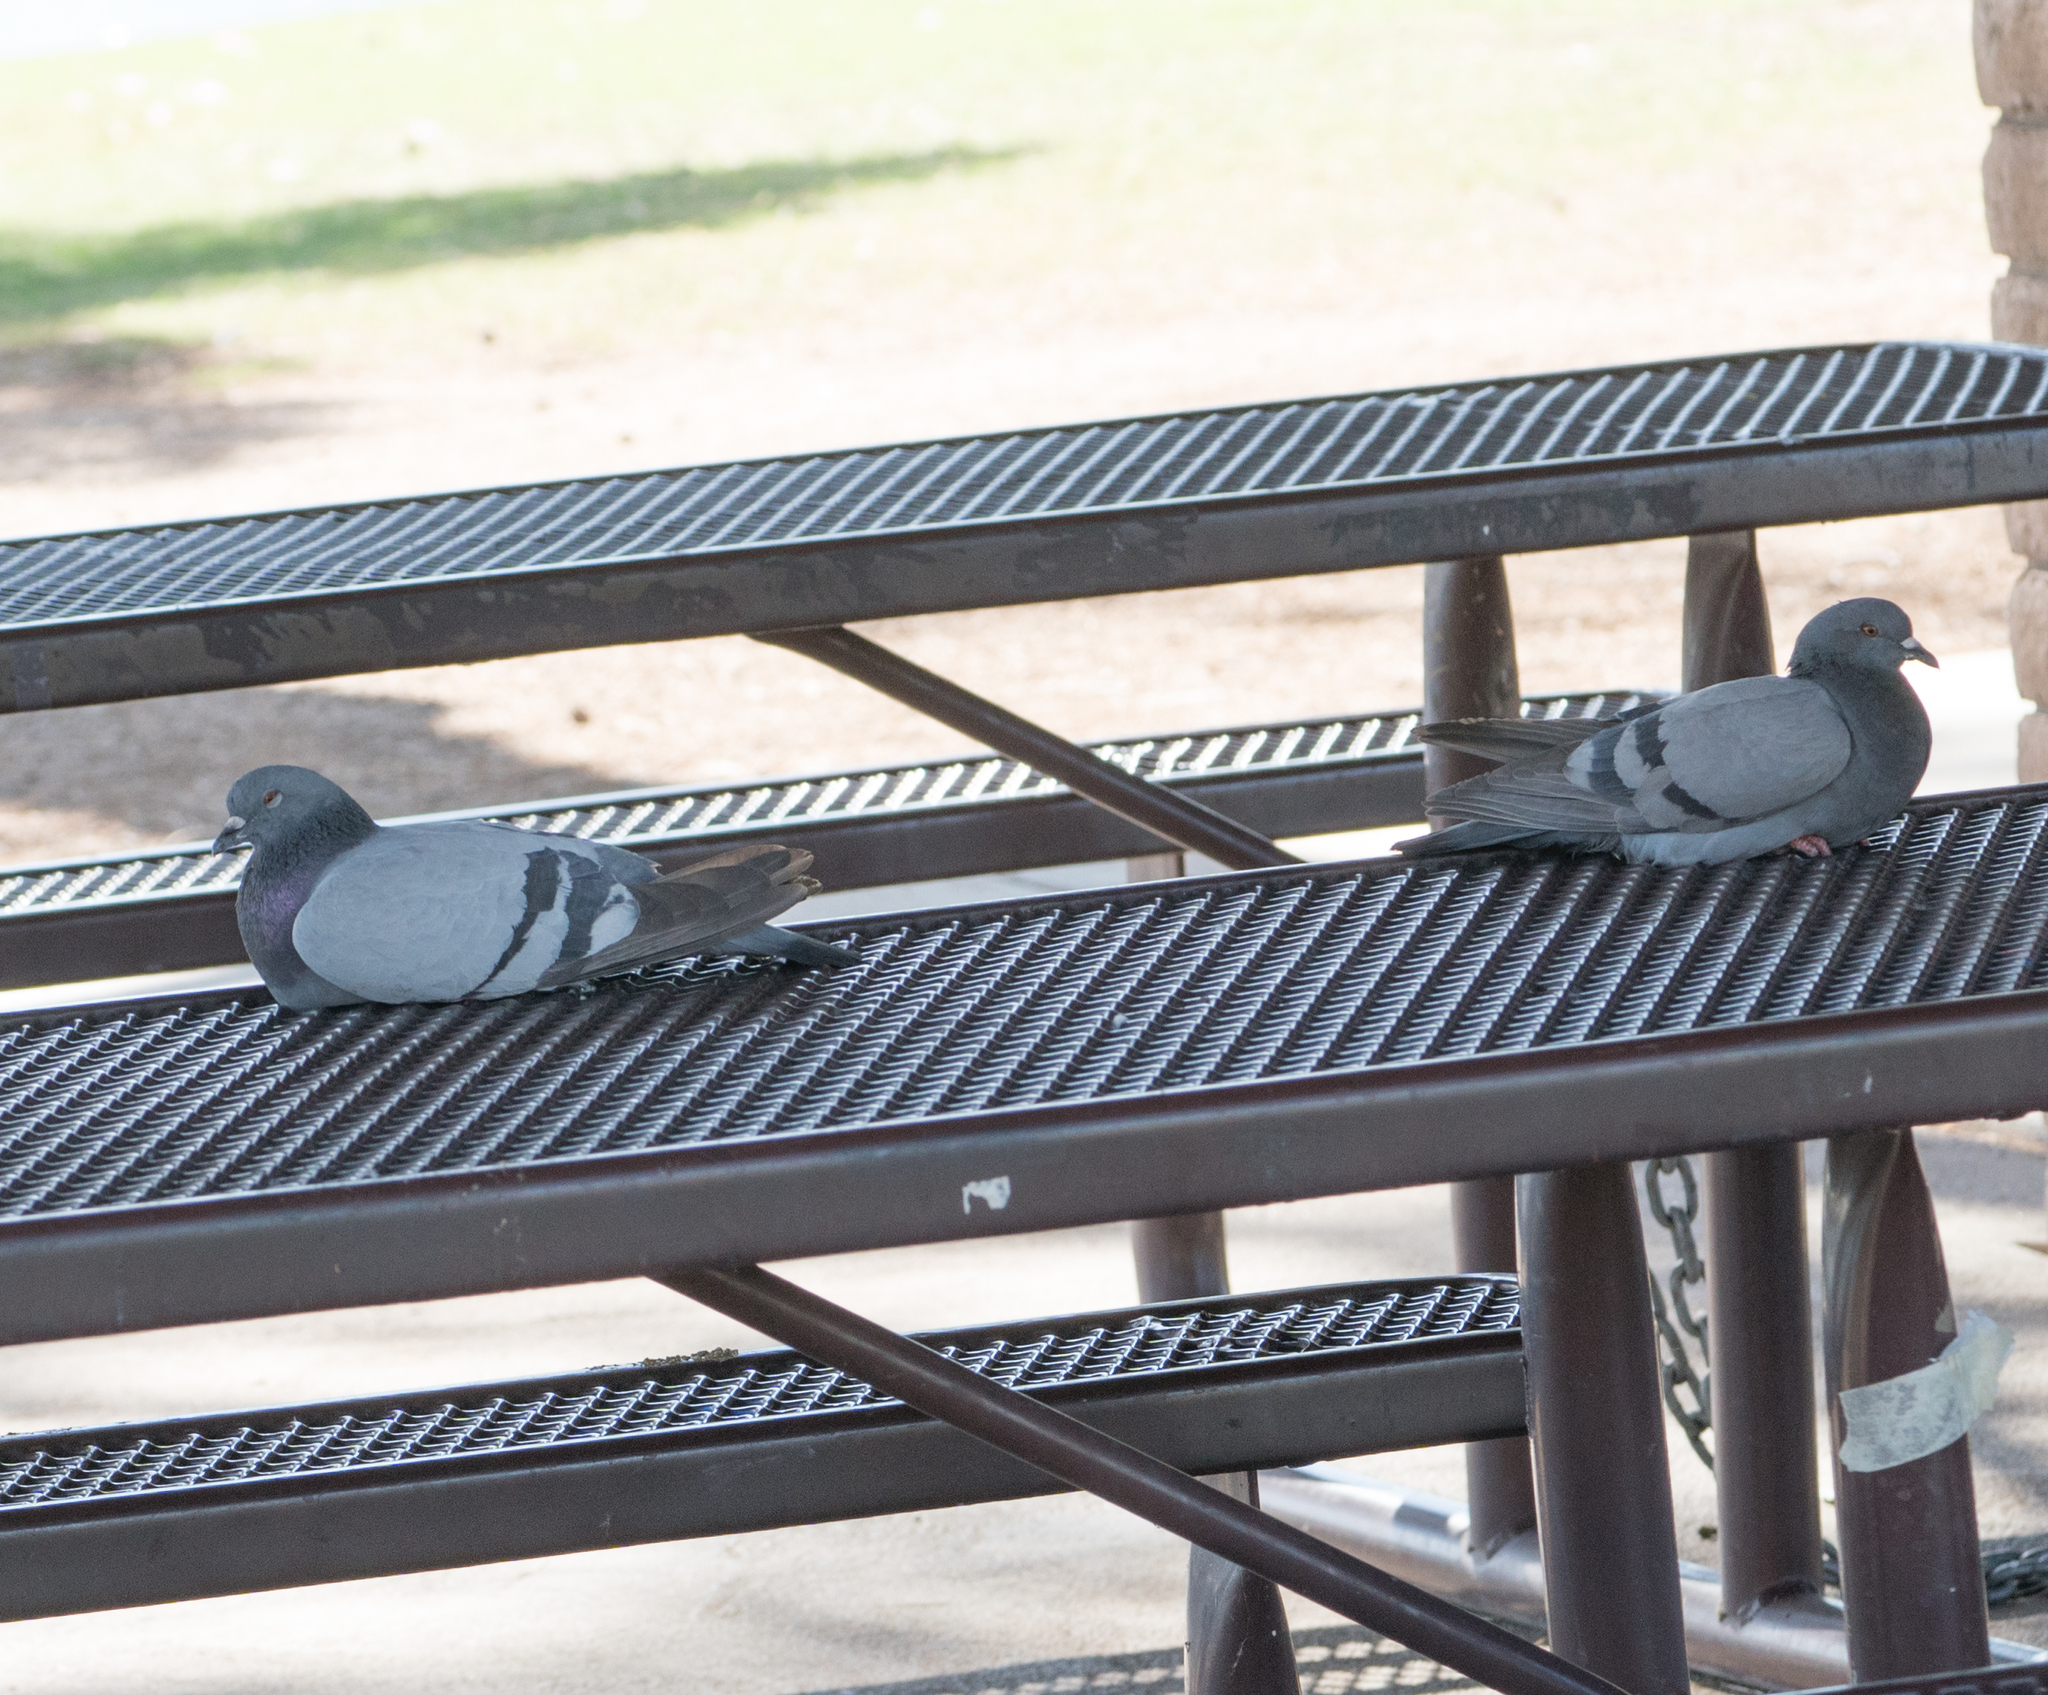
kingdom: Animalia
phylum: Chordata
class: Aves
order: Columbiformes
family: Columbidae
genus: Columba
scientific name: Columba livia
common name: Rock pigeon
